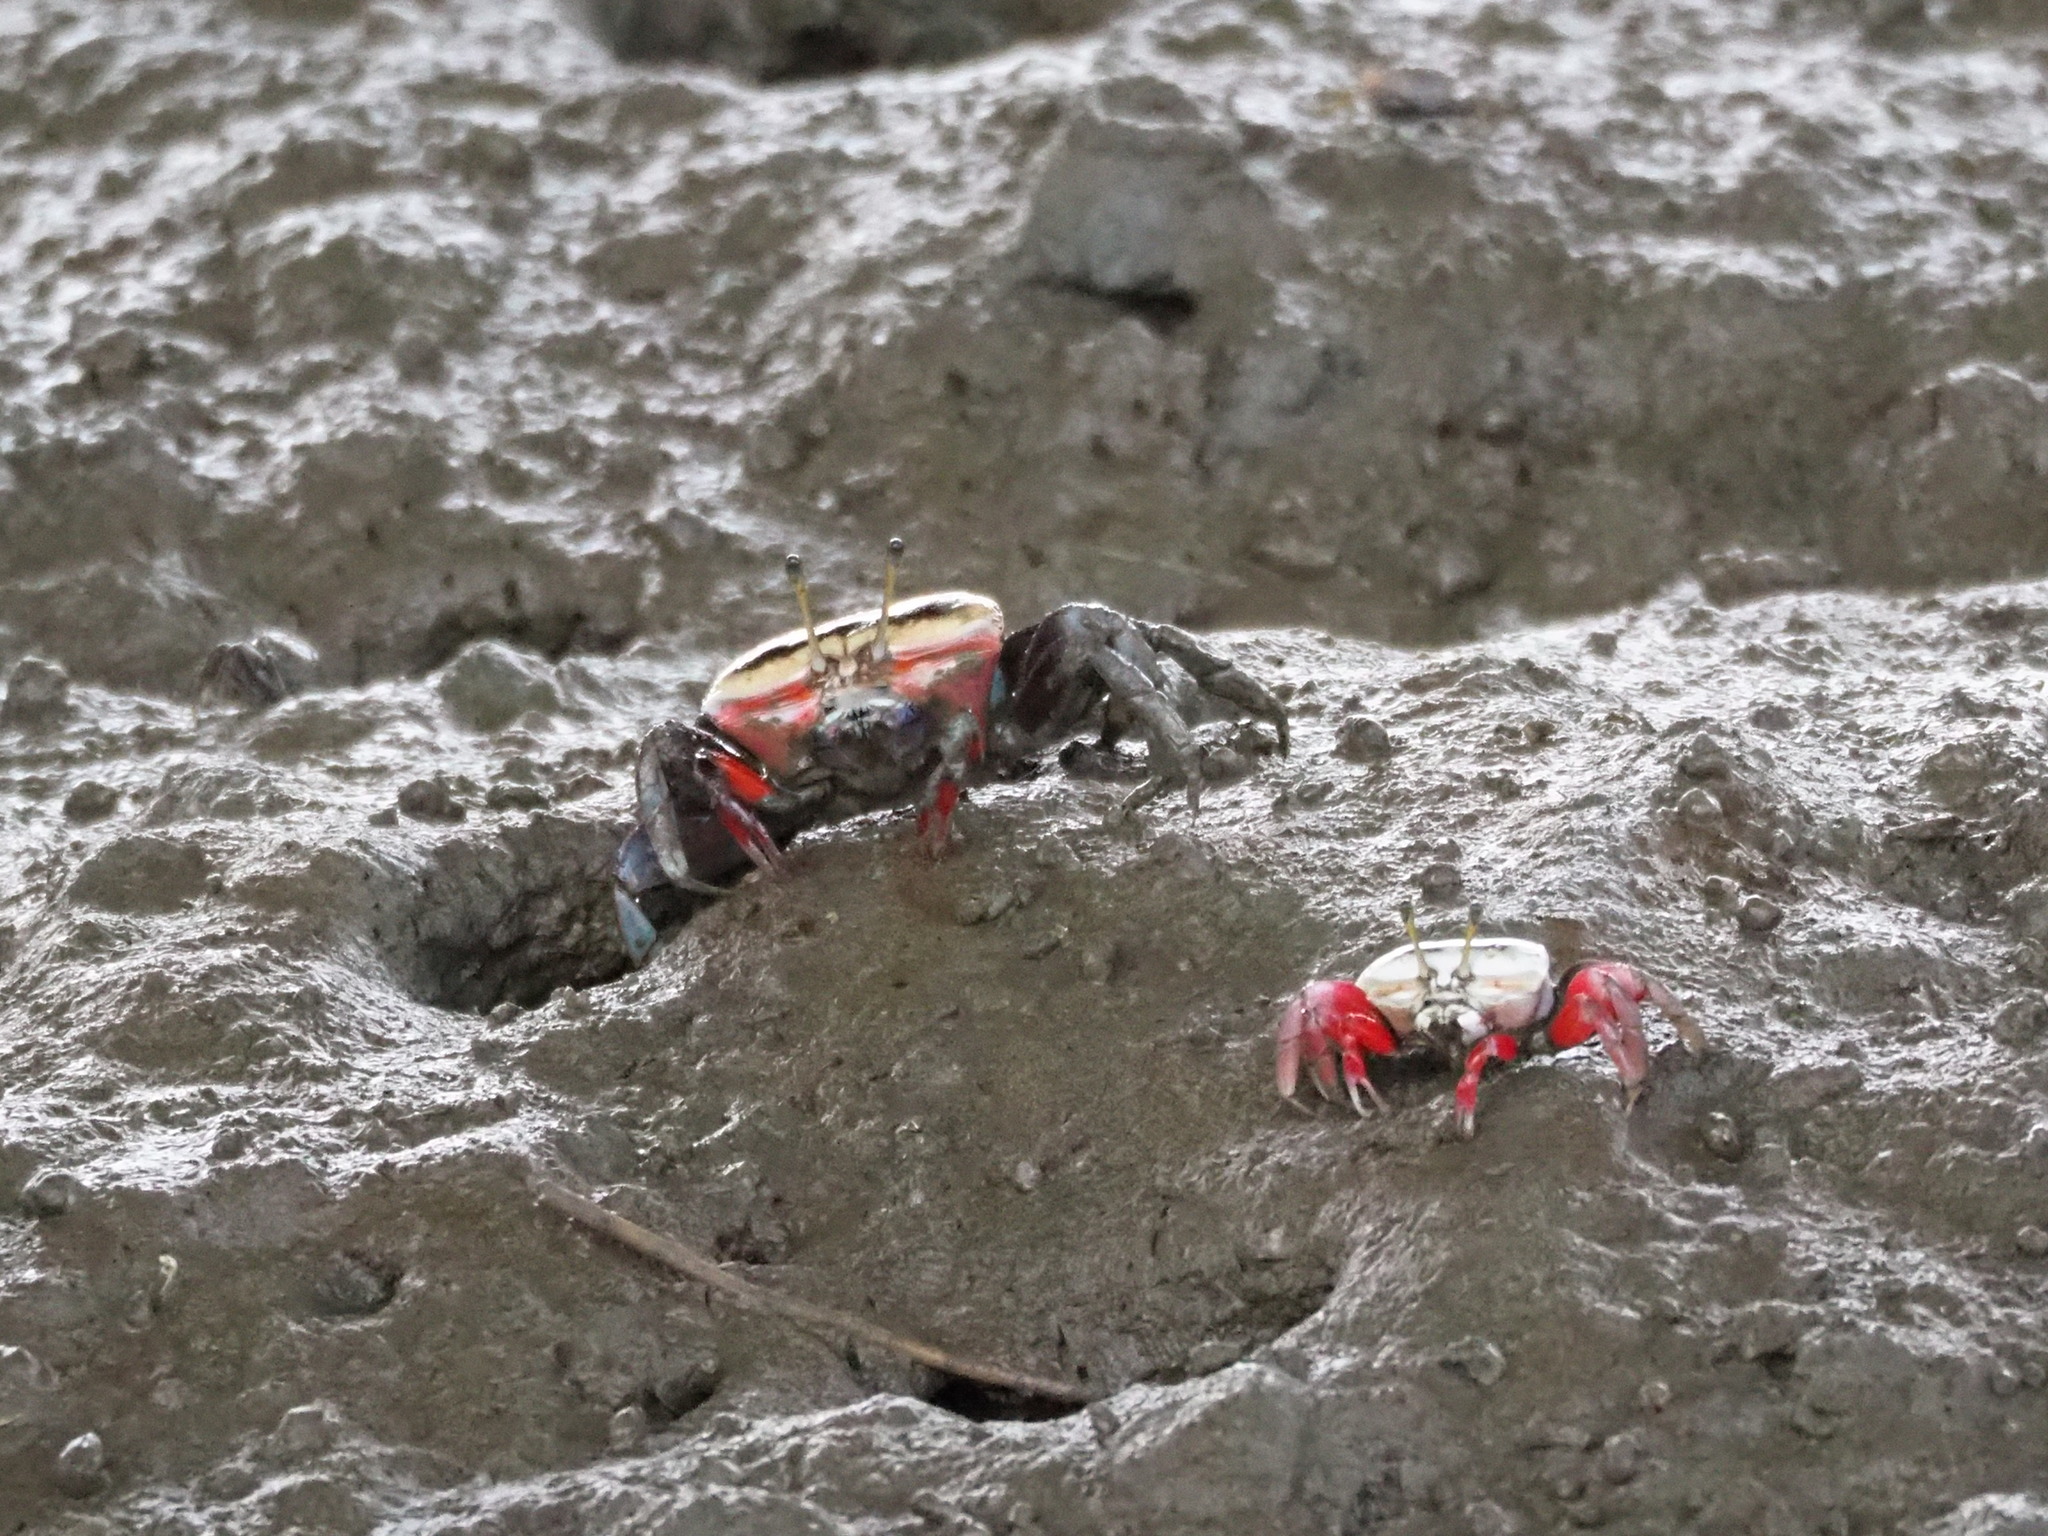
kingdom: Animalia
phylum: Arthropoda
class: Malacostraca
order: Decapoda
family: Ocypodidae
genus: Tubuca
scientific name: Tubuca arcuata
